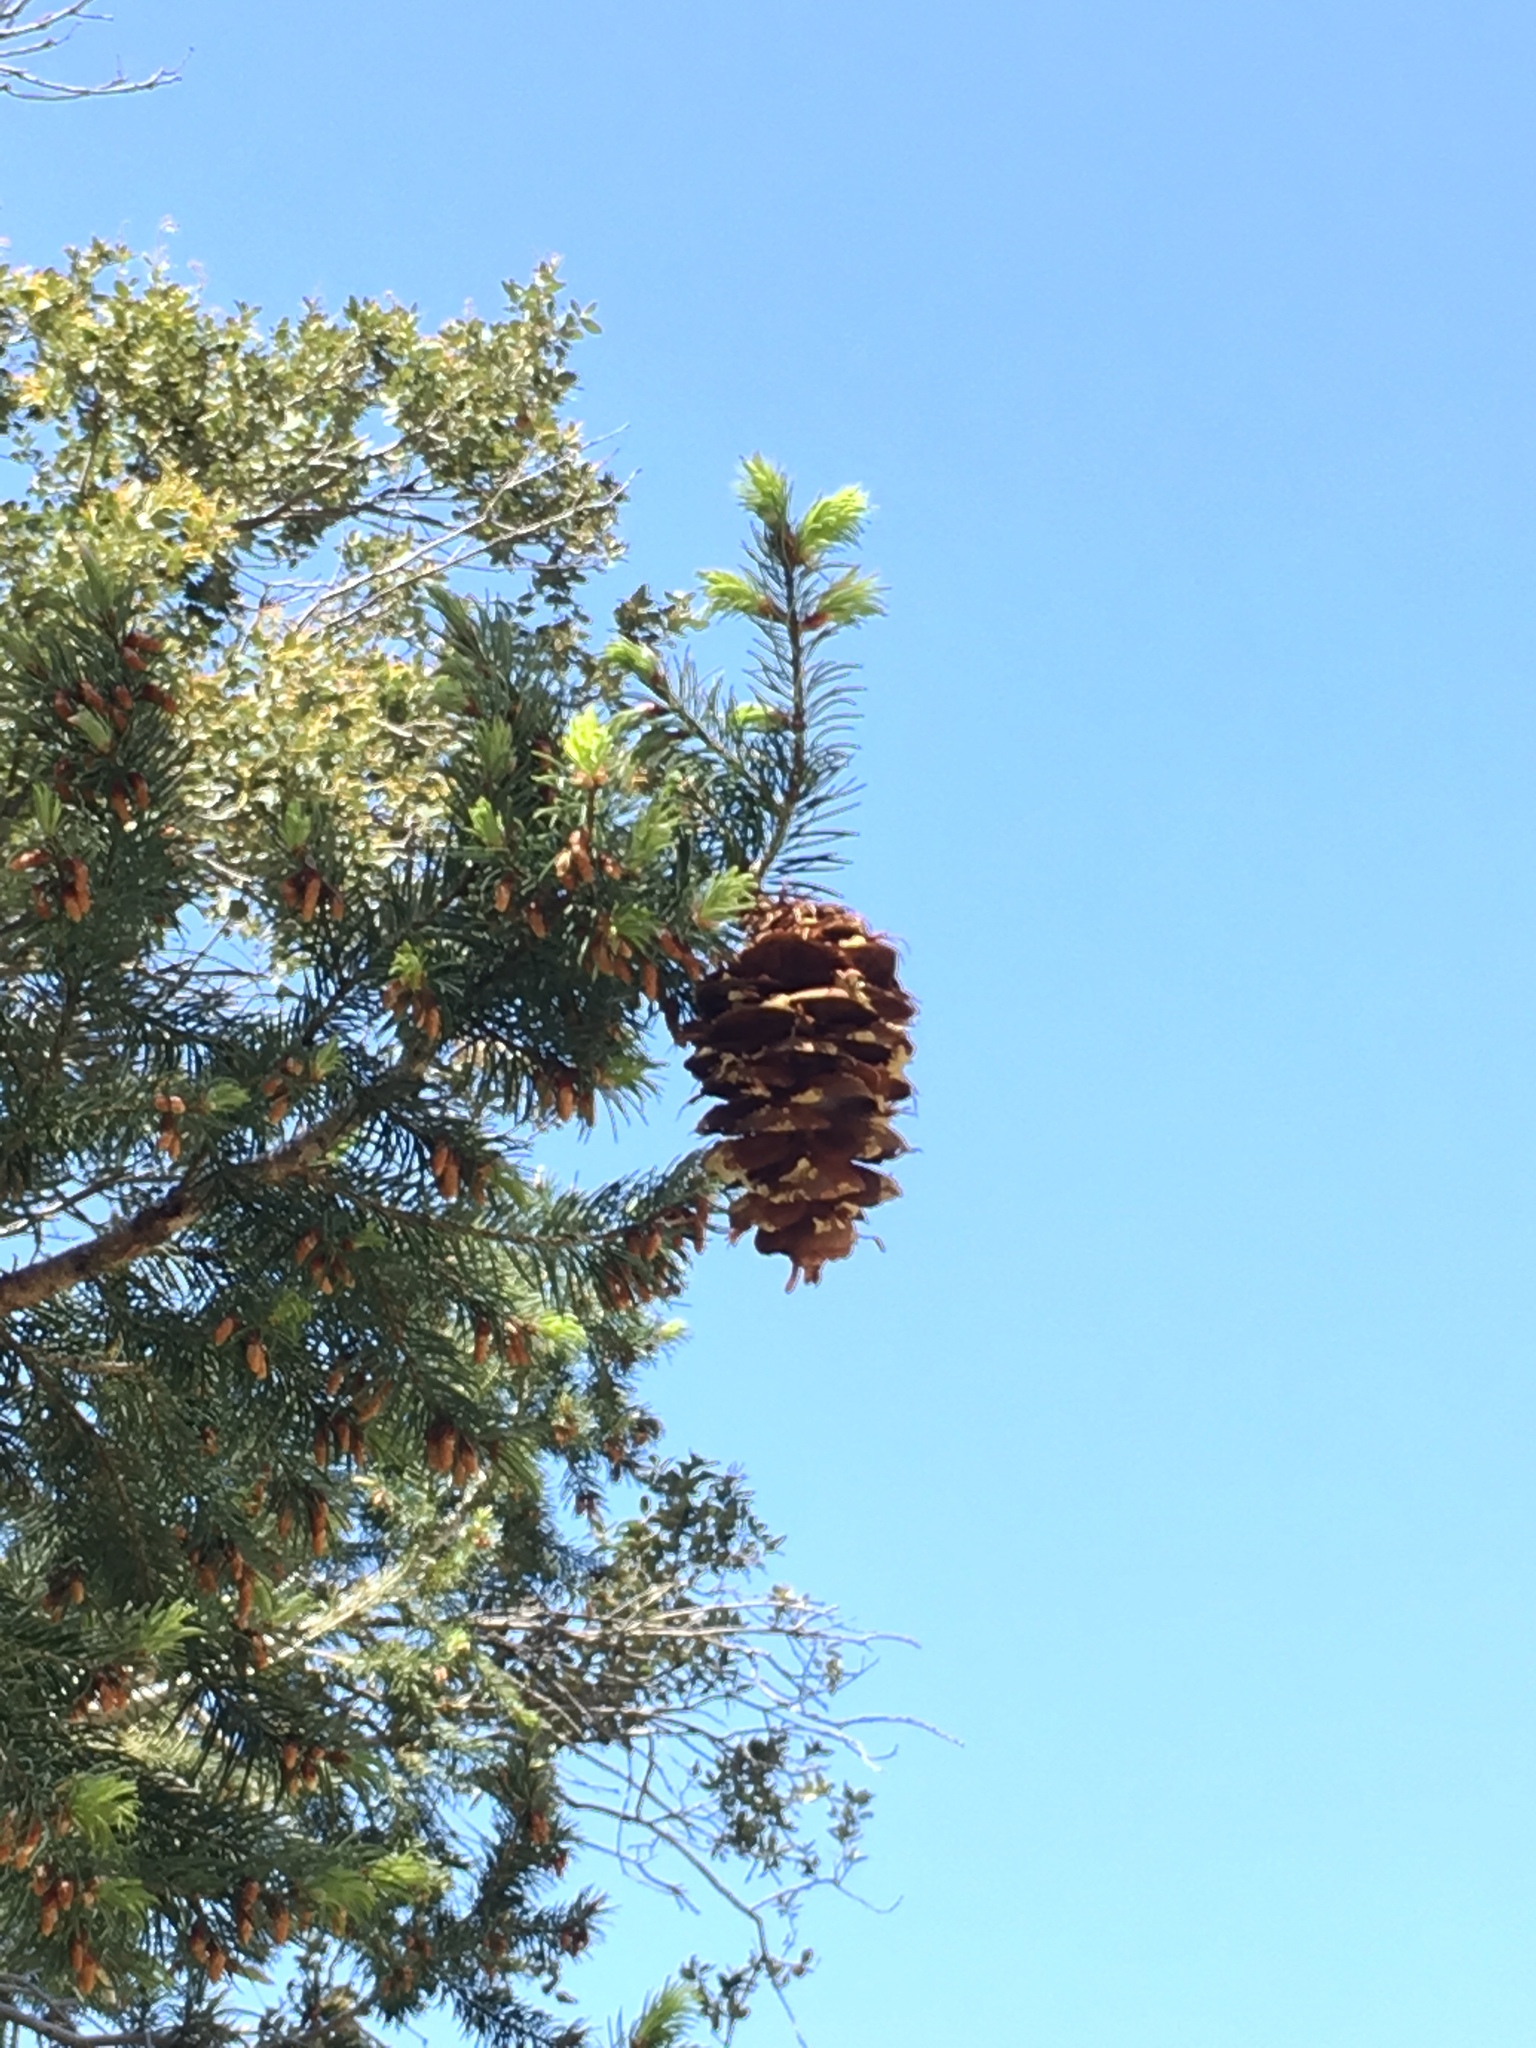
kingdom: Plantae
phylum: Tracheophyta
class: Pinopsida
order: Pinales
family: Pinaceae
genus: Pseudotsuga
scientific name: Pseudotsuga macrocarpa
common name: Big-cone douglas-fir
